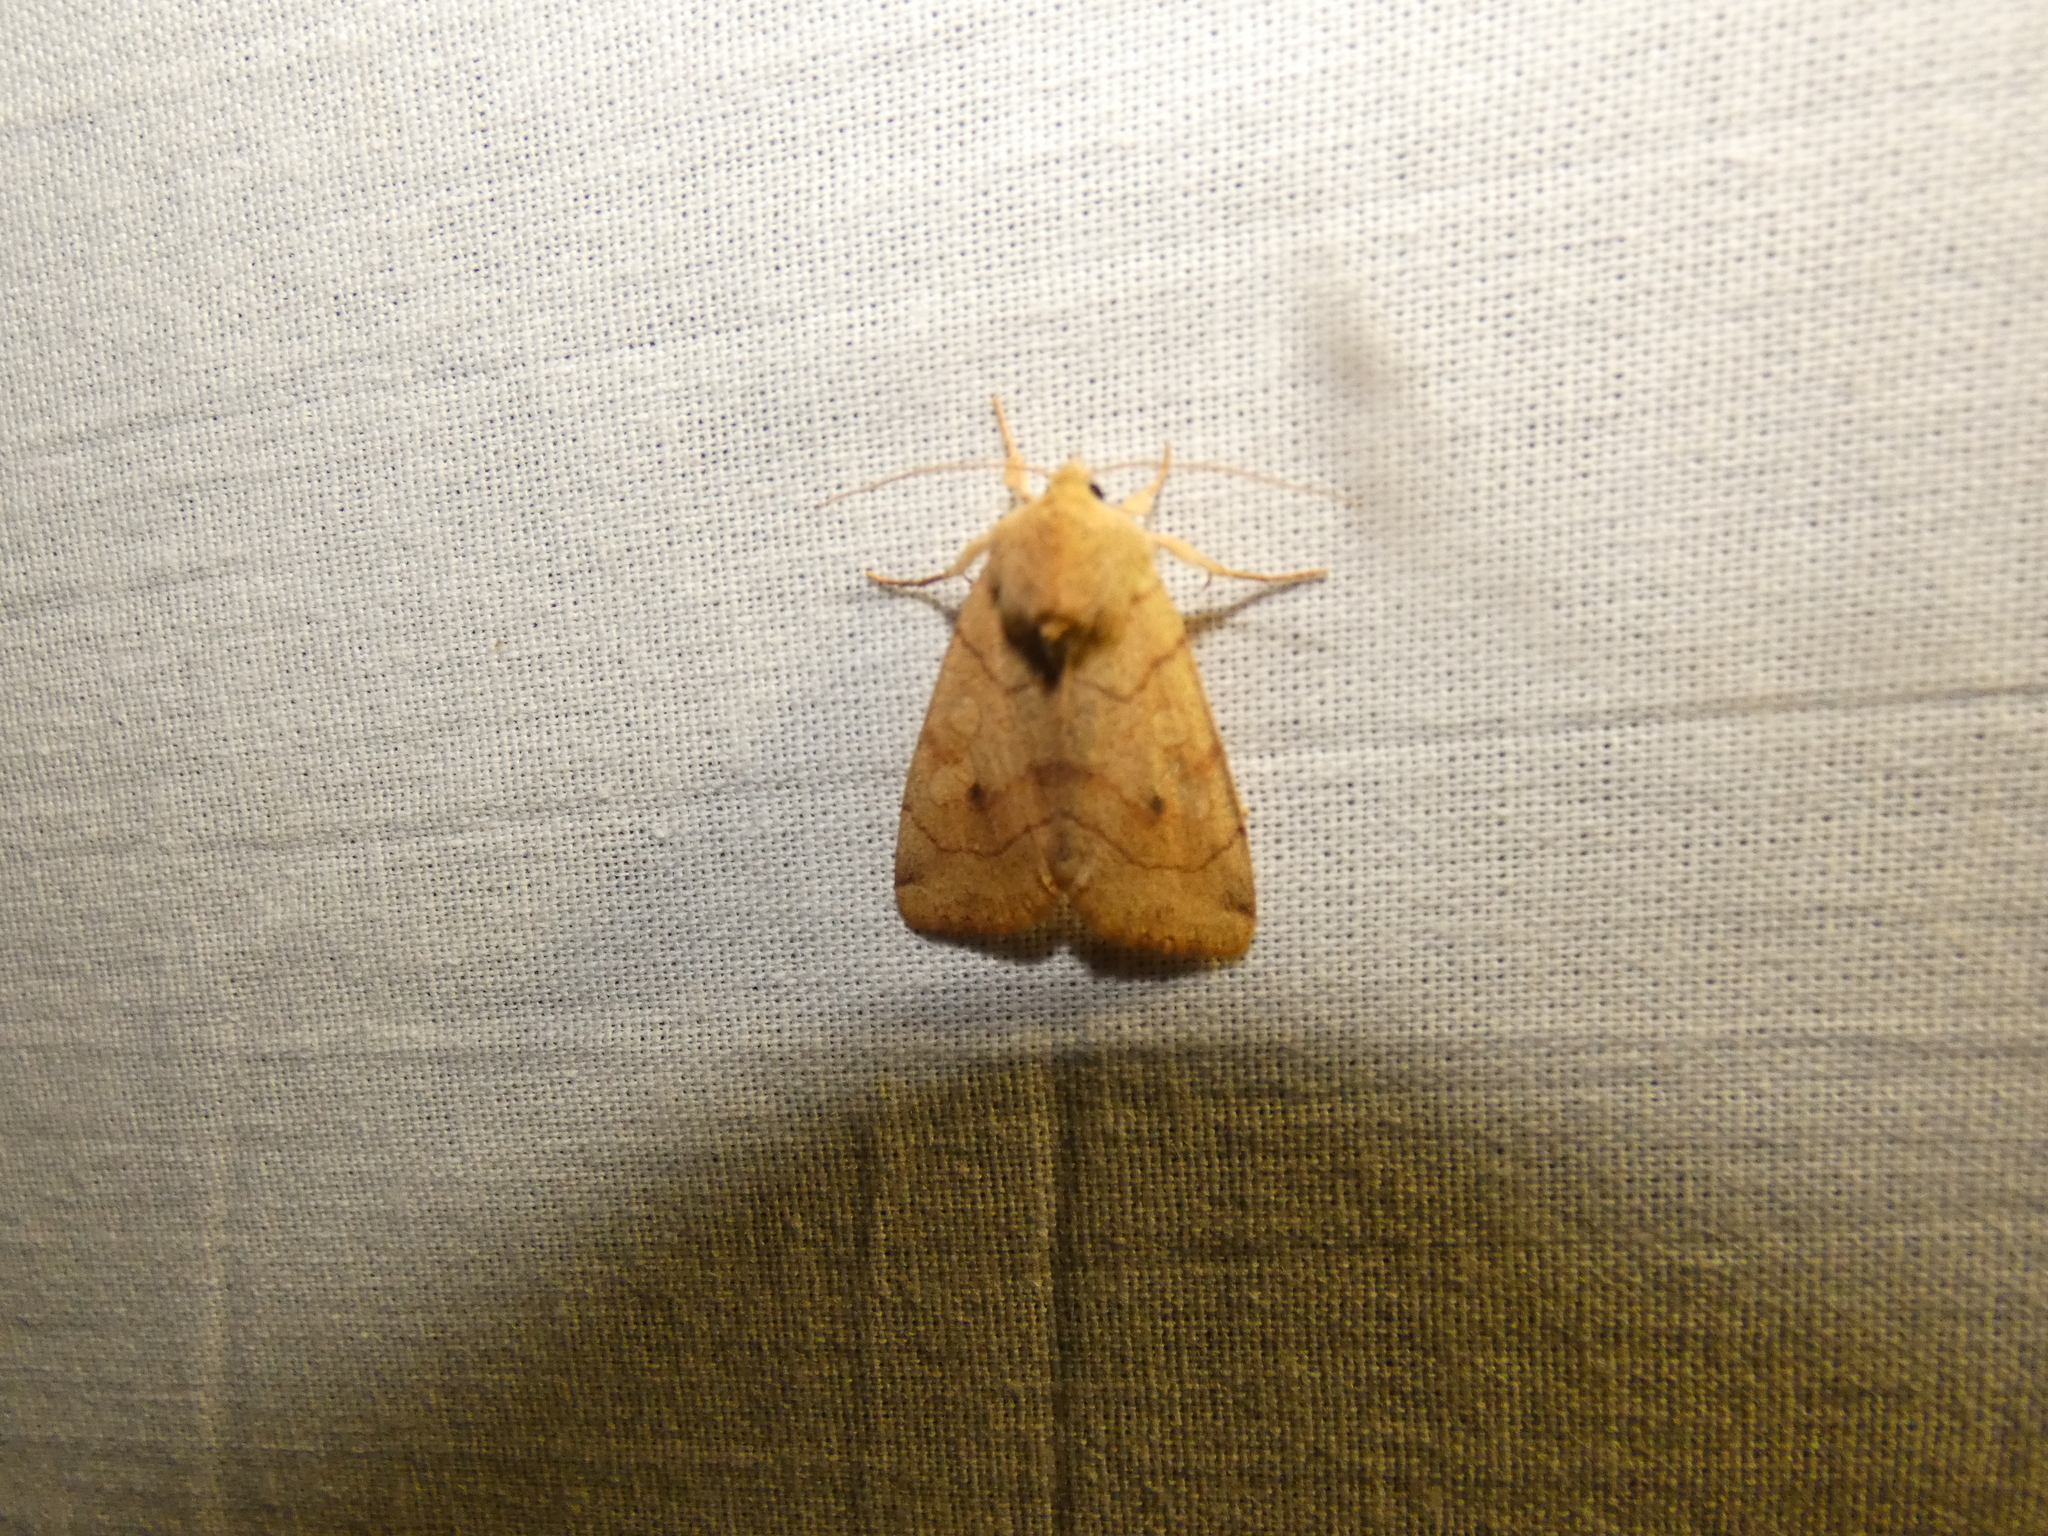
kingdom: Animalia
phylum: Arthropoda
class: Insecta
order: Lepidoptera
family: Noctuidae
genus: Enargia
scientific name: Enargia paleacea
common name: Angle-striped sallow
